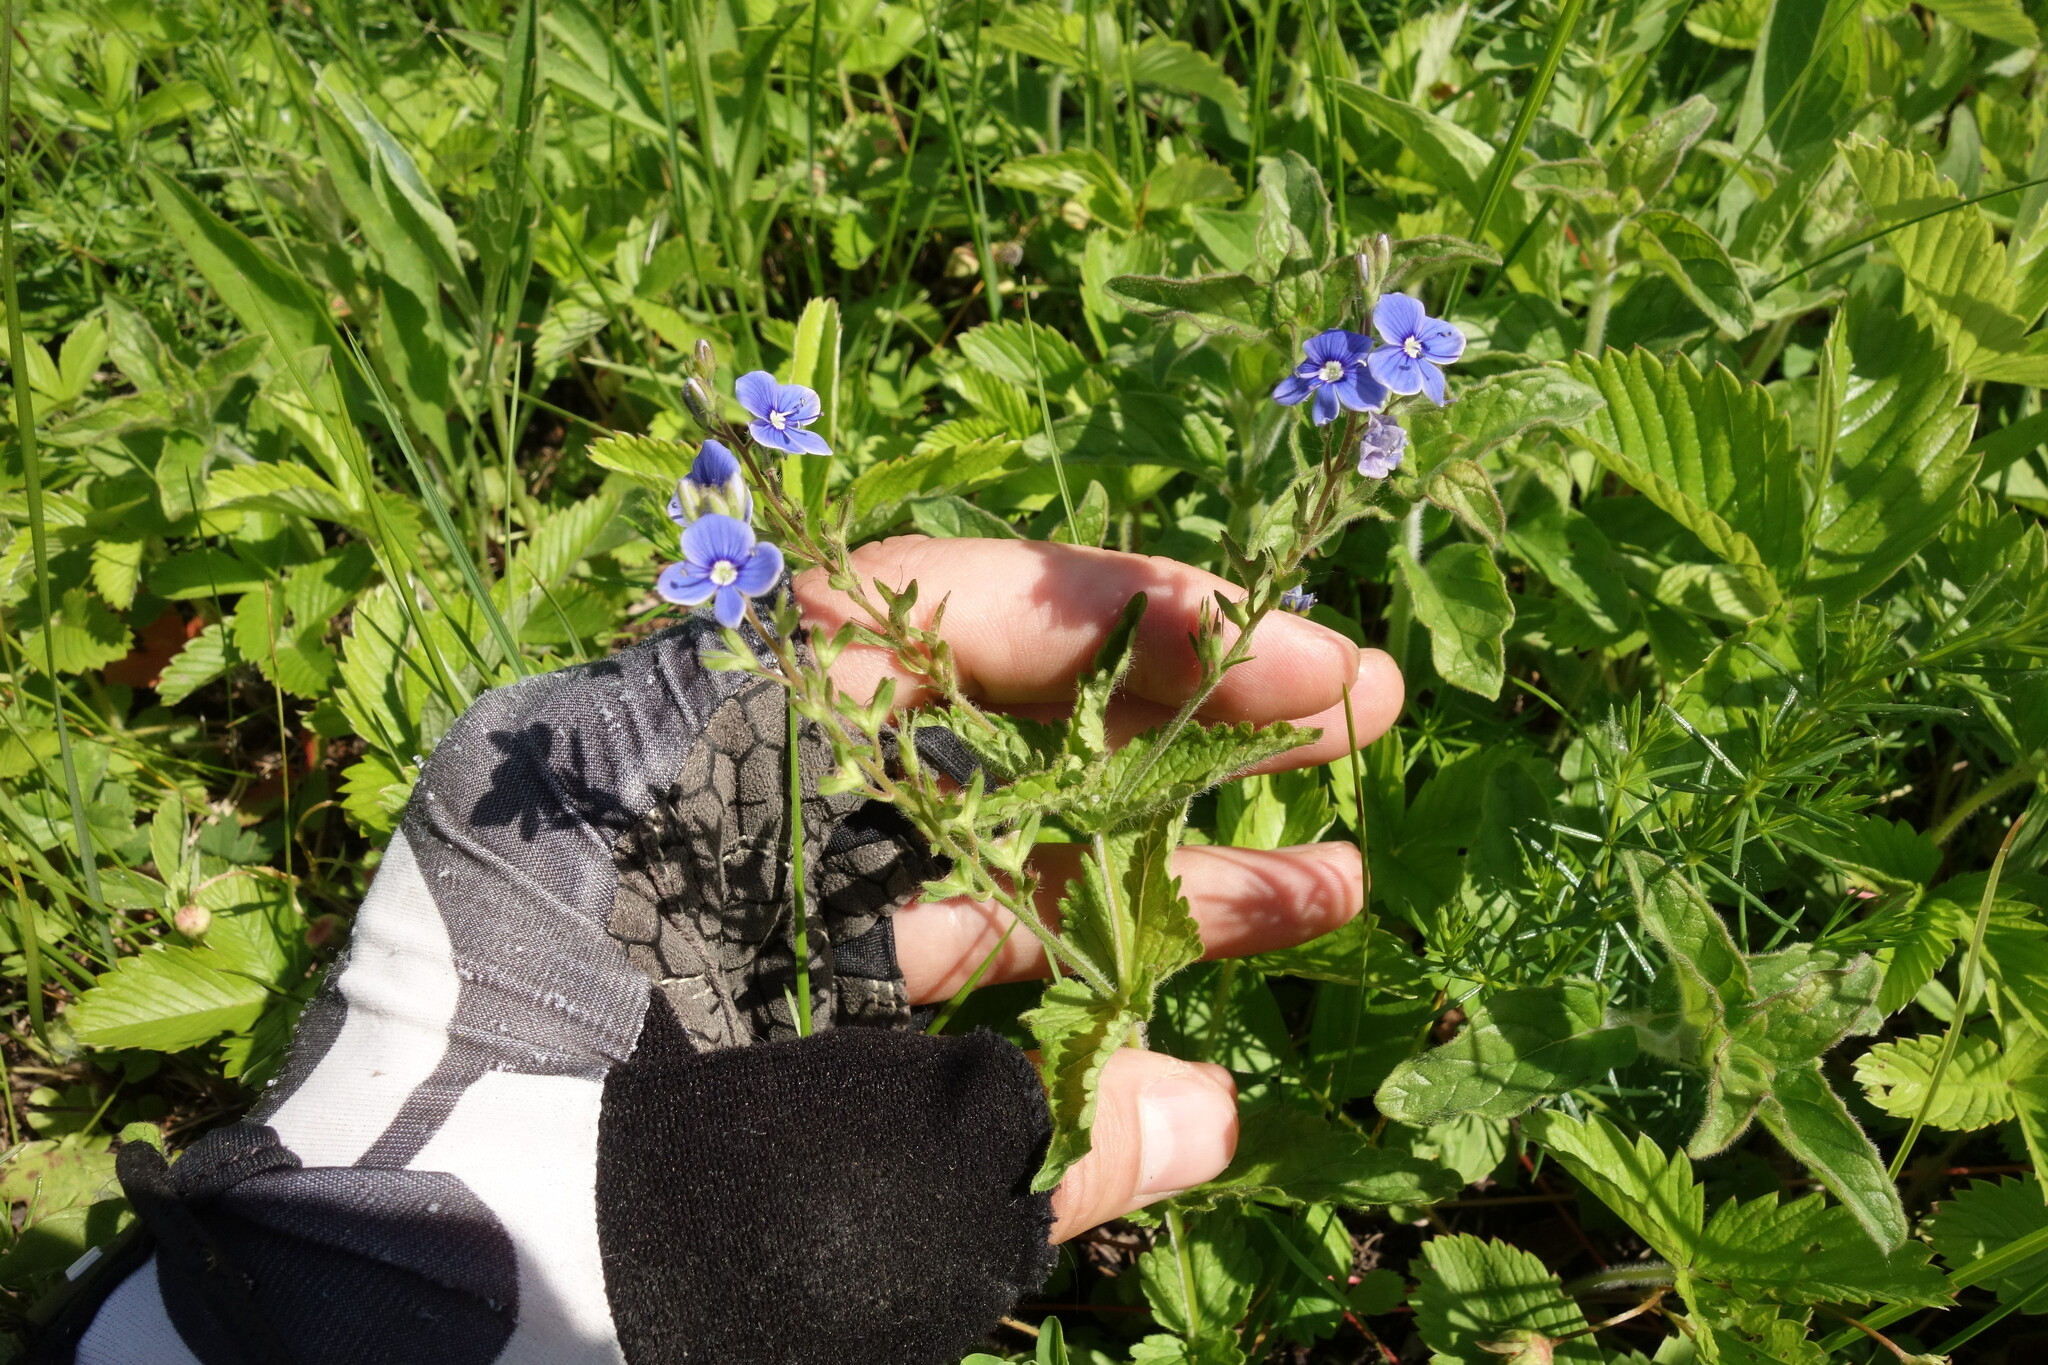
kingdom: Plantae
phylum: Tracheophyta
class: Magnoliopsida
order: Lamiales
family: Plantaginaceae
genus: Veronica
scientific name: Veronica chamaedrys
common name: Germander speedwell
